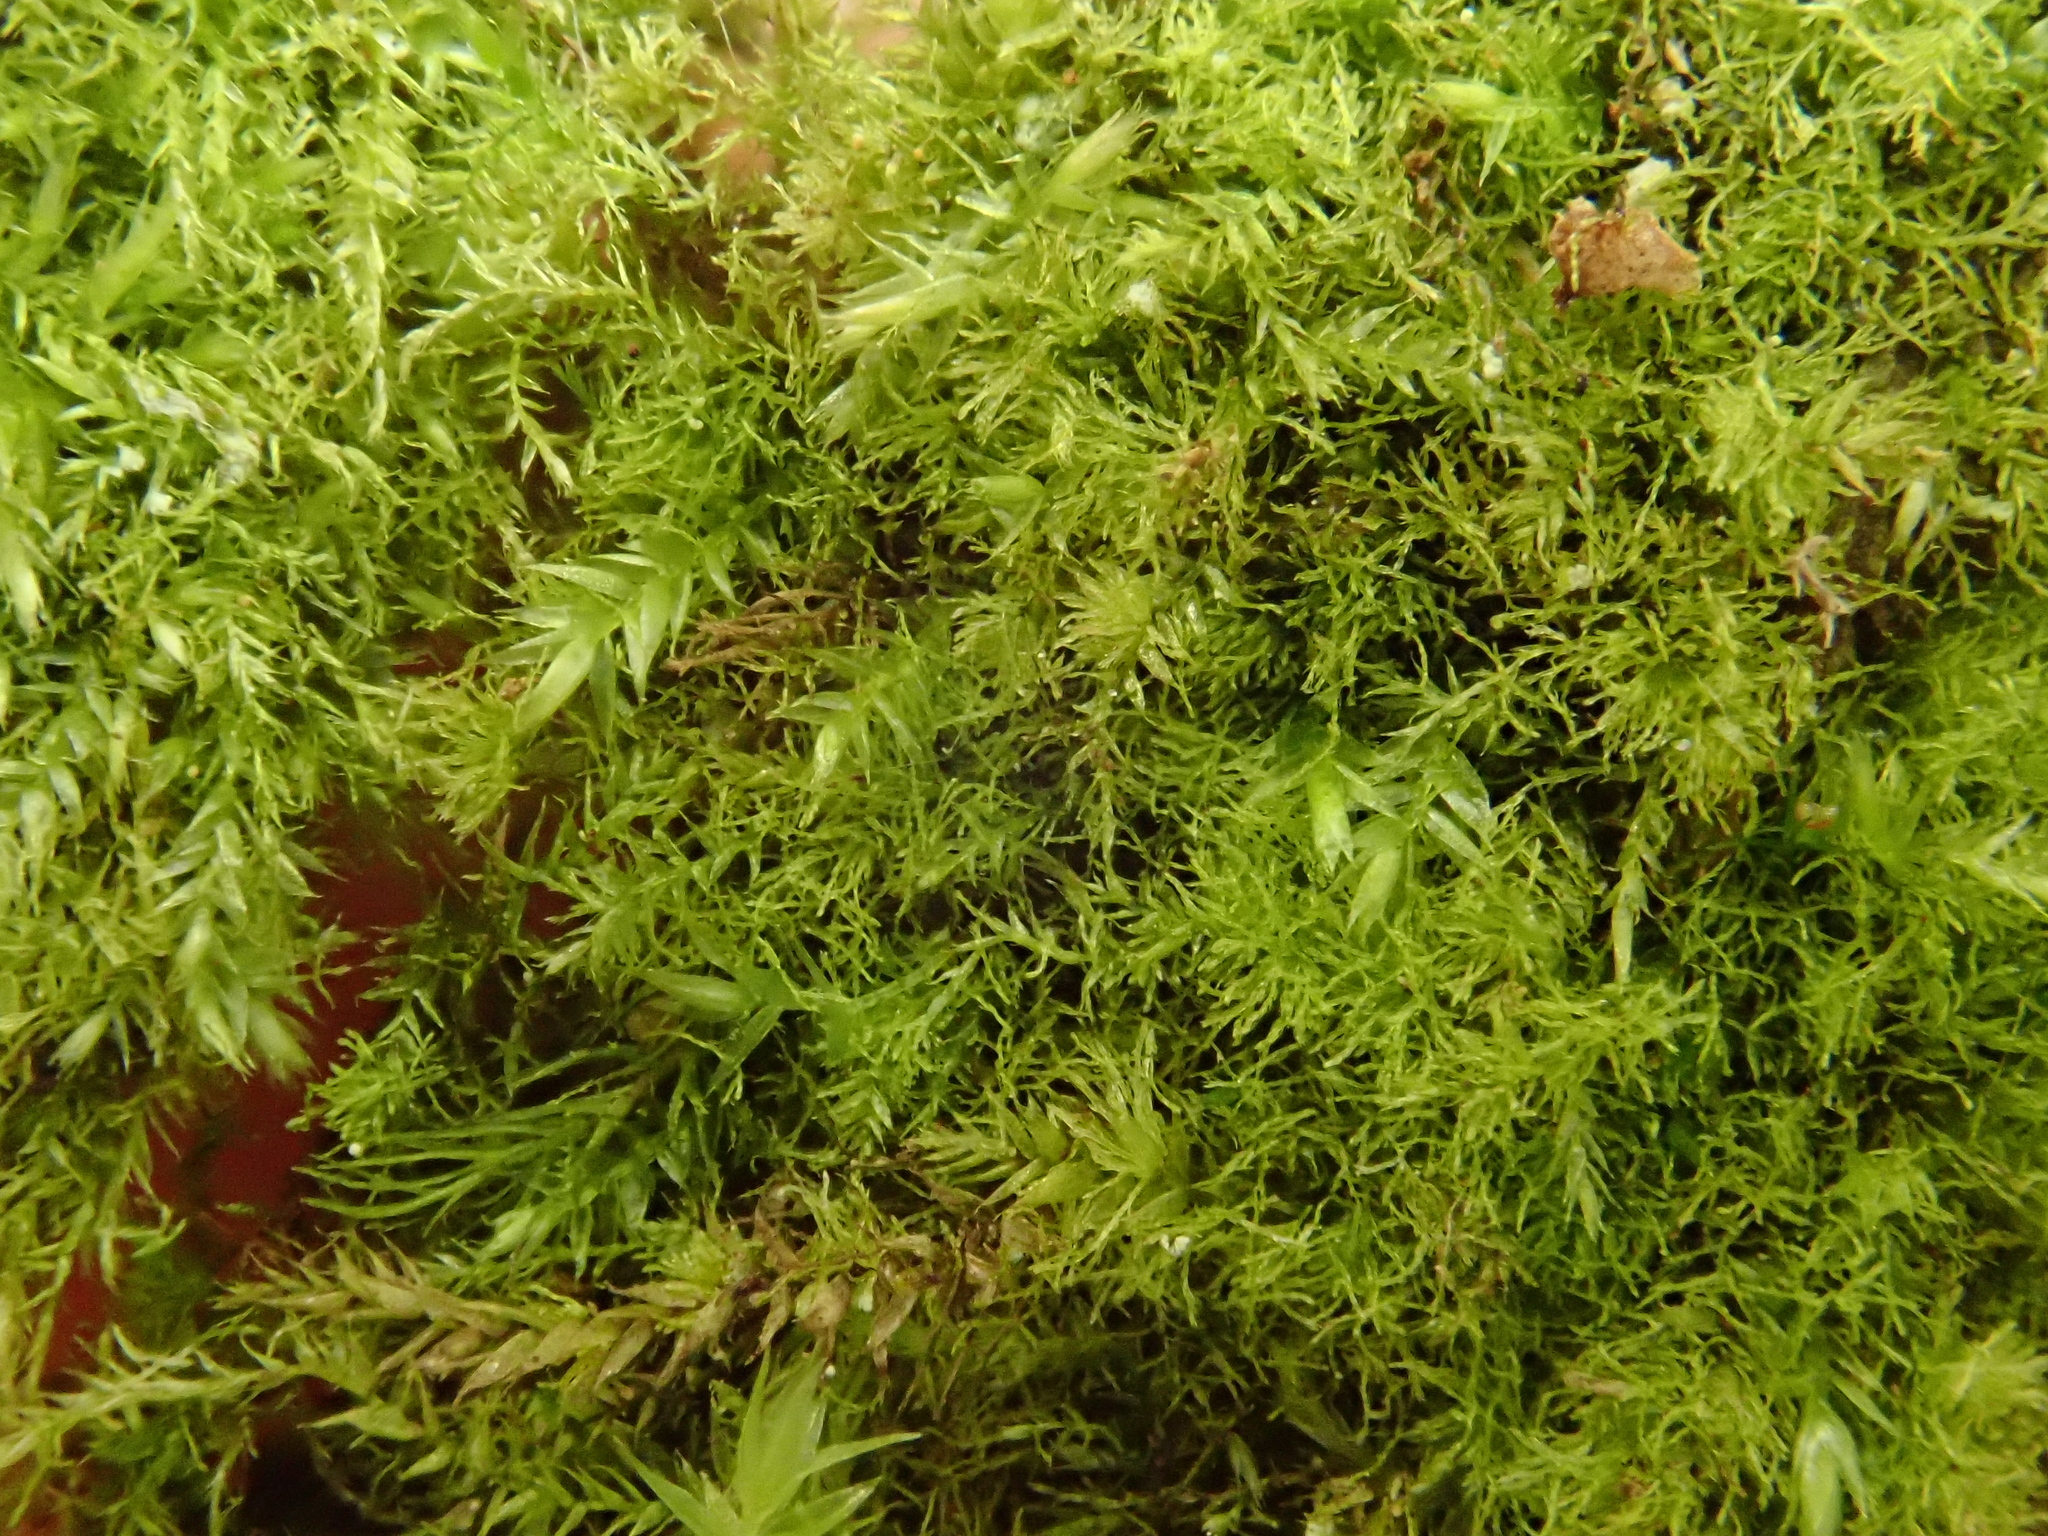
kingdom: Plantae
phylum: Bryophyta
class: Bryopsida
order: Hypnales
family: Plagiotheciaceae
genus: Pseudotaxiphyllum
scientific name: Pseudotaxiphyllum elegans
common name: Elegant silk moss
